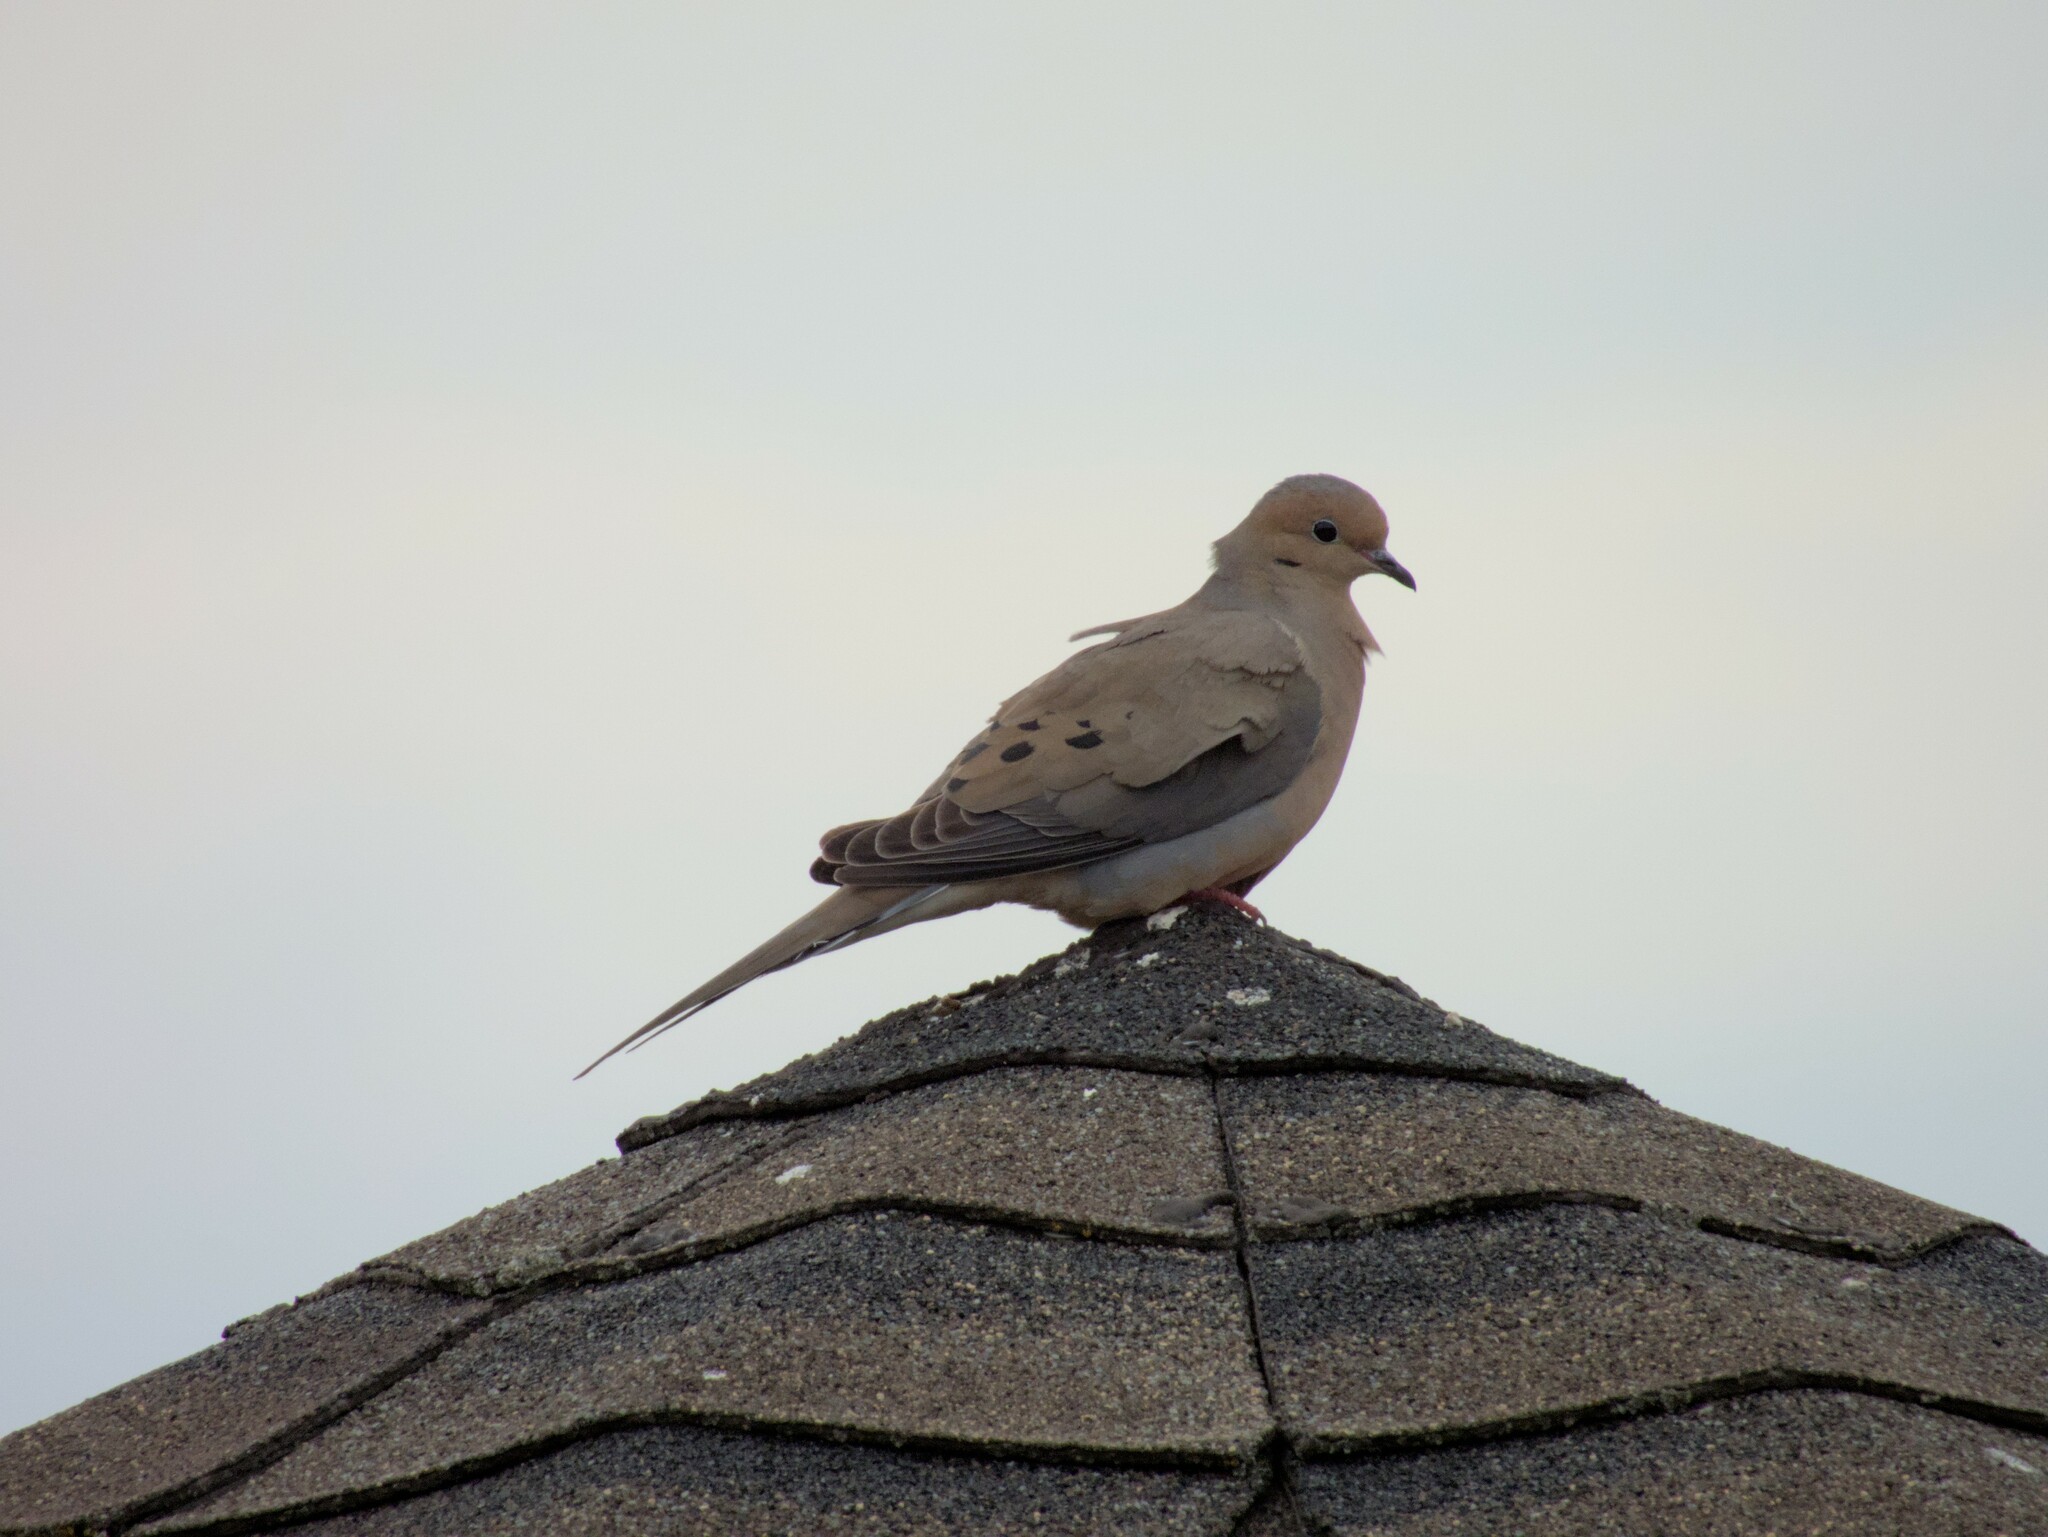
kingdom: Animalia
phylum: Chordata
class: Aves
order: Columbiformes
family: Columbidae
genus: Zenaida
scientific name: Zenaida macroura
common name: Mourning dove
